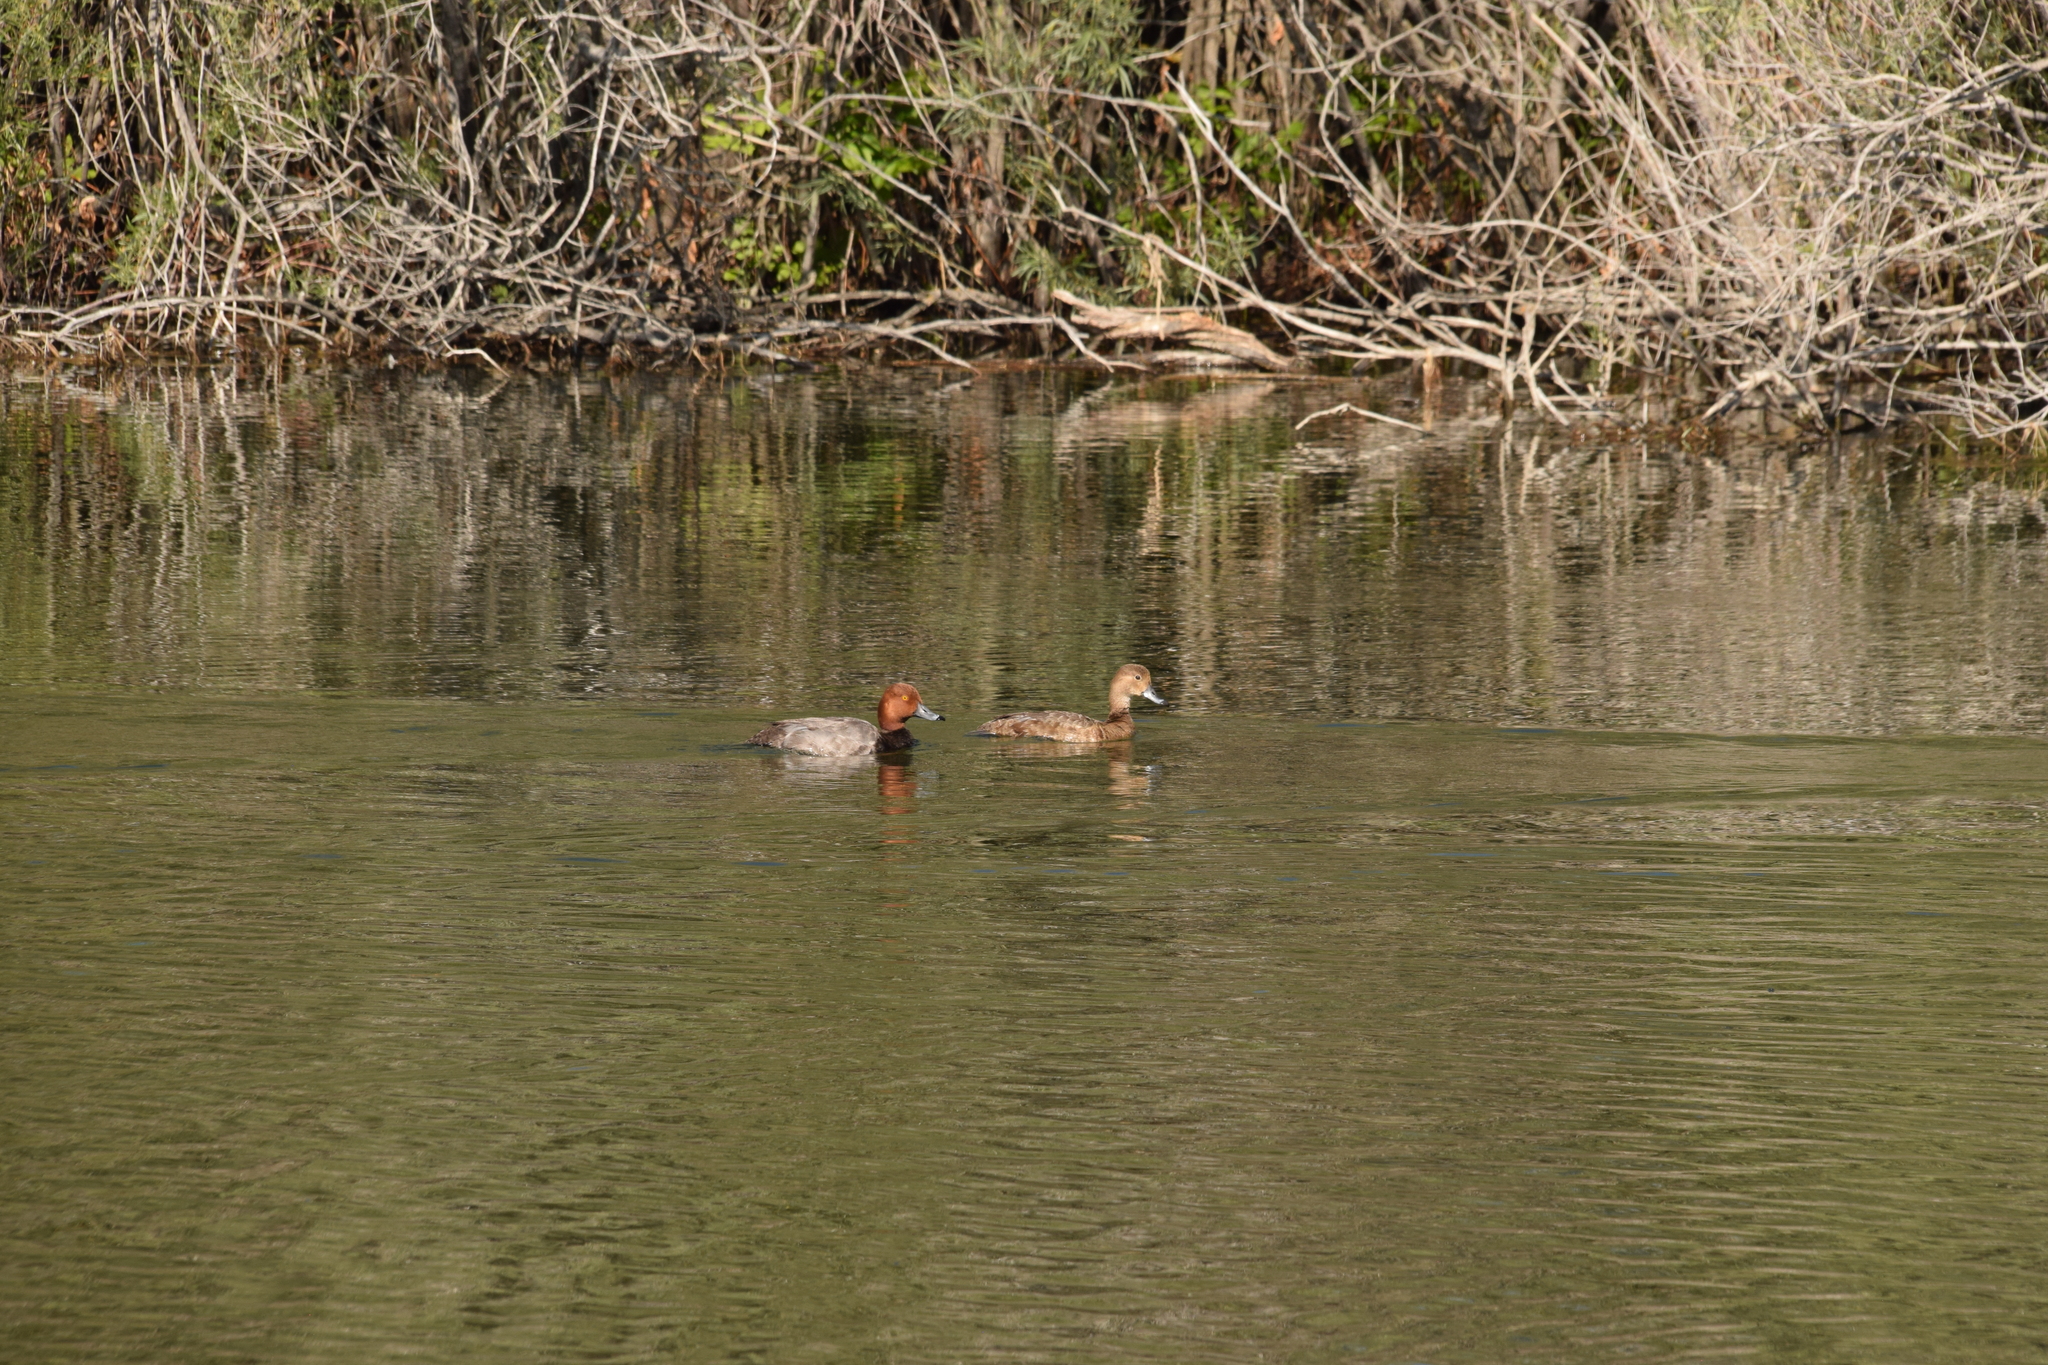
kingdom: Animalia
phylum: Chordata
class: Aves
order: Anseriformes
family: Anatidae
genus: Aythya
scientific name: Aythya americana
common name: Redhead
